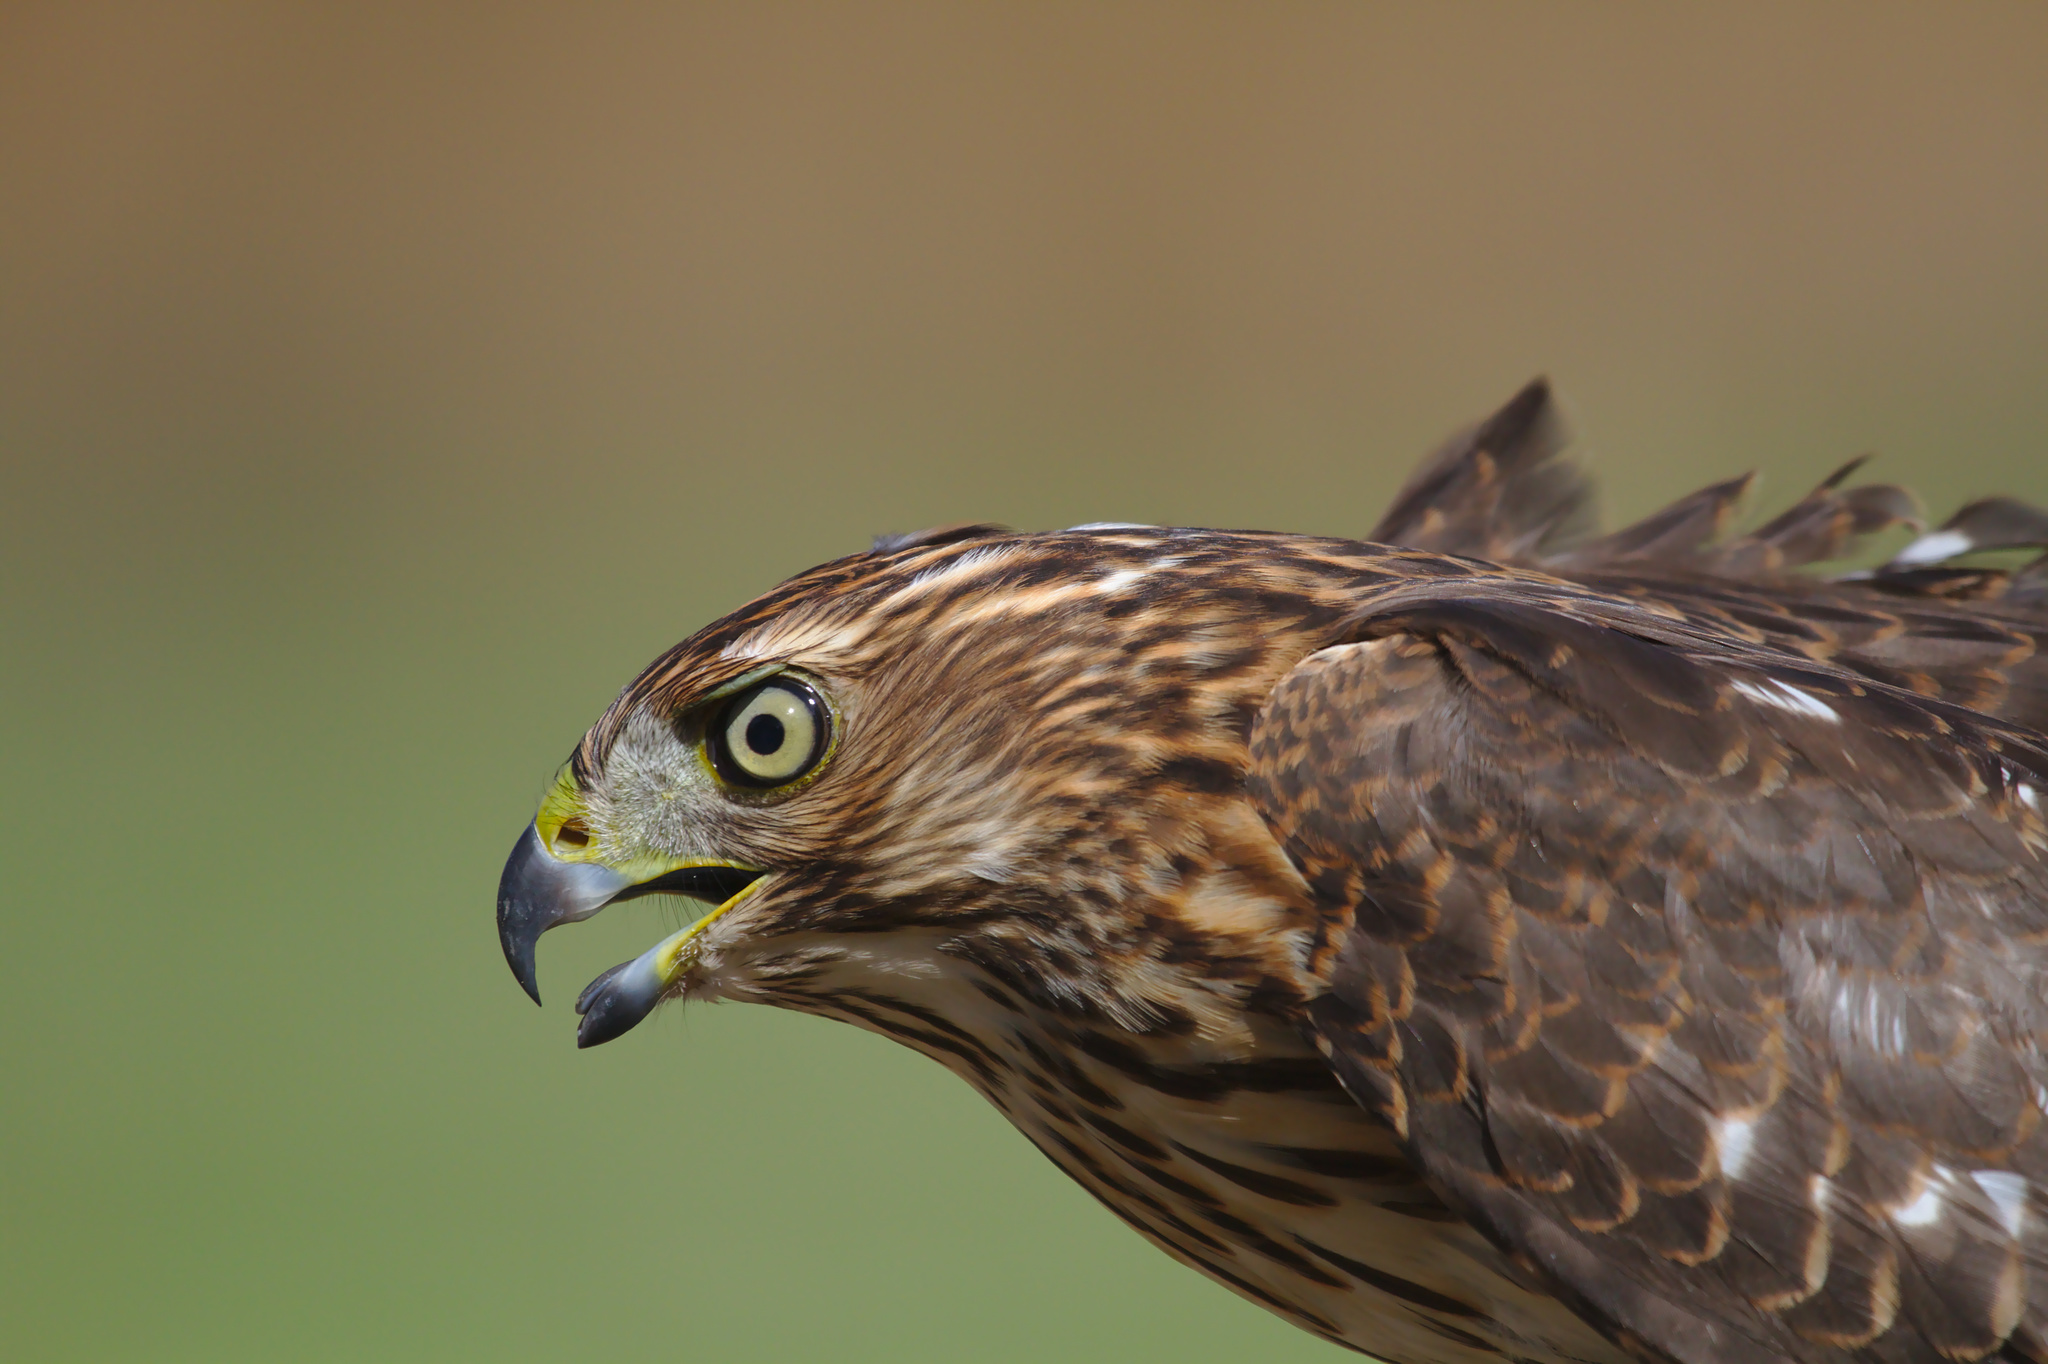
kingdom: Animalia
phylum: Chordata
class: Aves
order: Accipitriformes
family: Accipitridae
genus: Accipiter
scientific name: Accipiter cooperii
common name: Cooper's hawk
